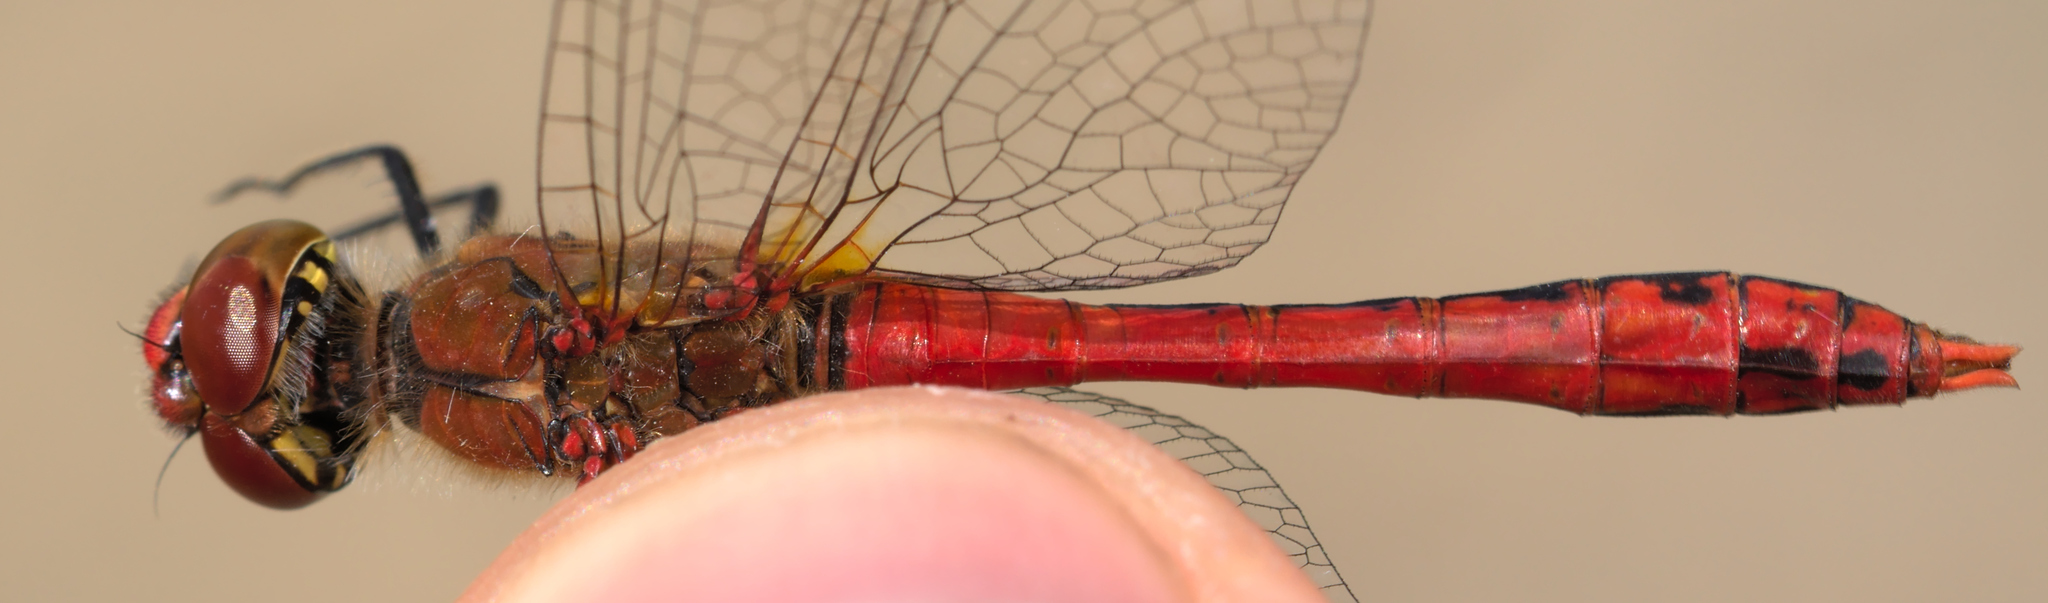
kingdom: Animalia
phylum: Arthropoda
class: Insecta
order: Odonata
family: Libellulidae
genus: Sympetrum
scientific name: Sympetrum sanguineum
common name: Ruddy darter
